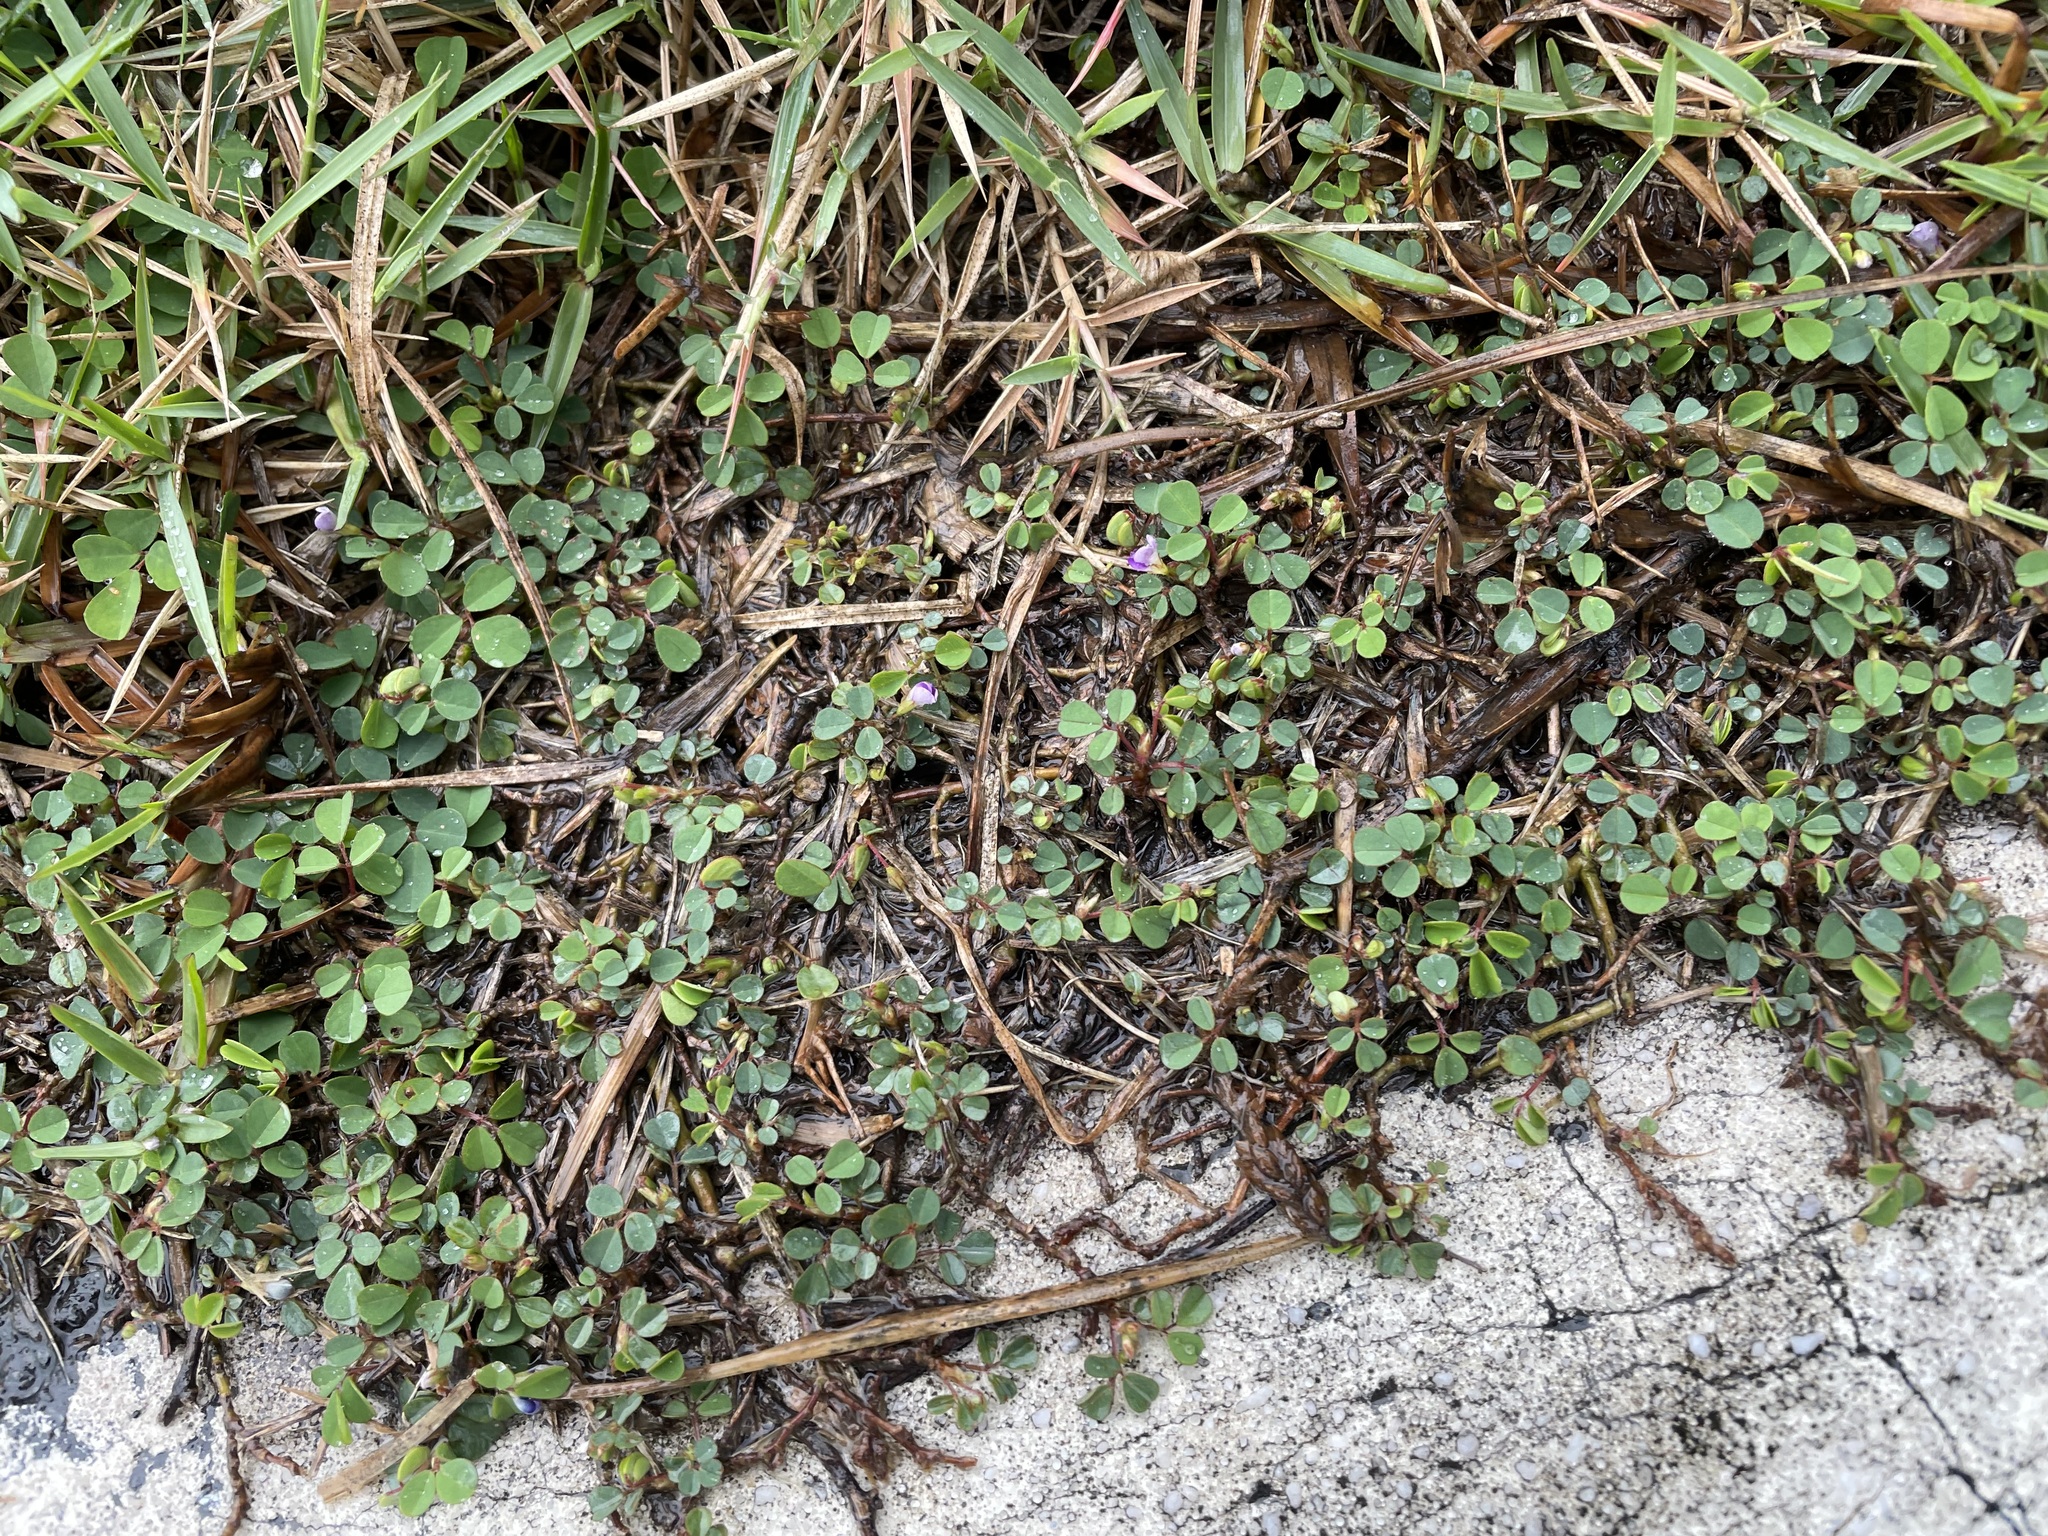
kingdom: Plantae
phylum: Tracheophyta
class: Magnoliopsida
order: Fabales
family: Fabaceae
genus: Grona
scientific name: Grona triflora
